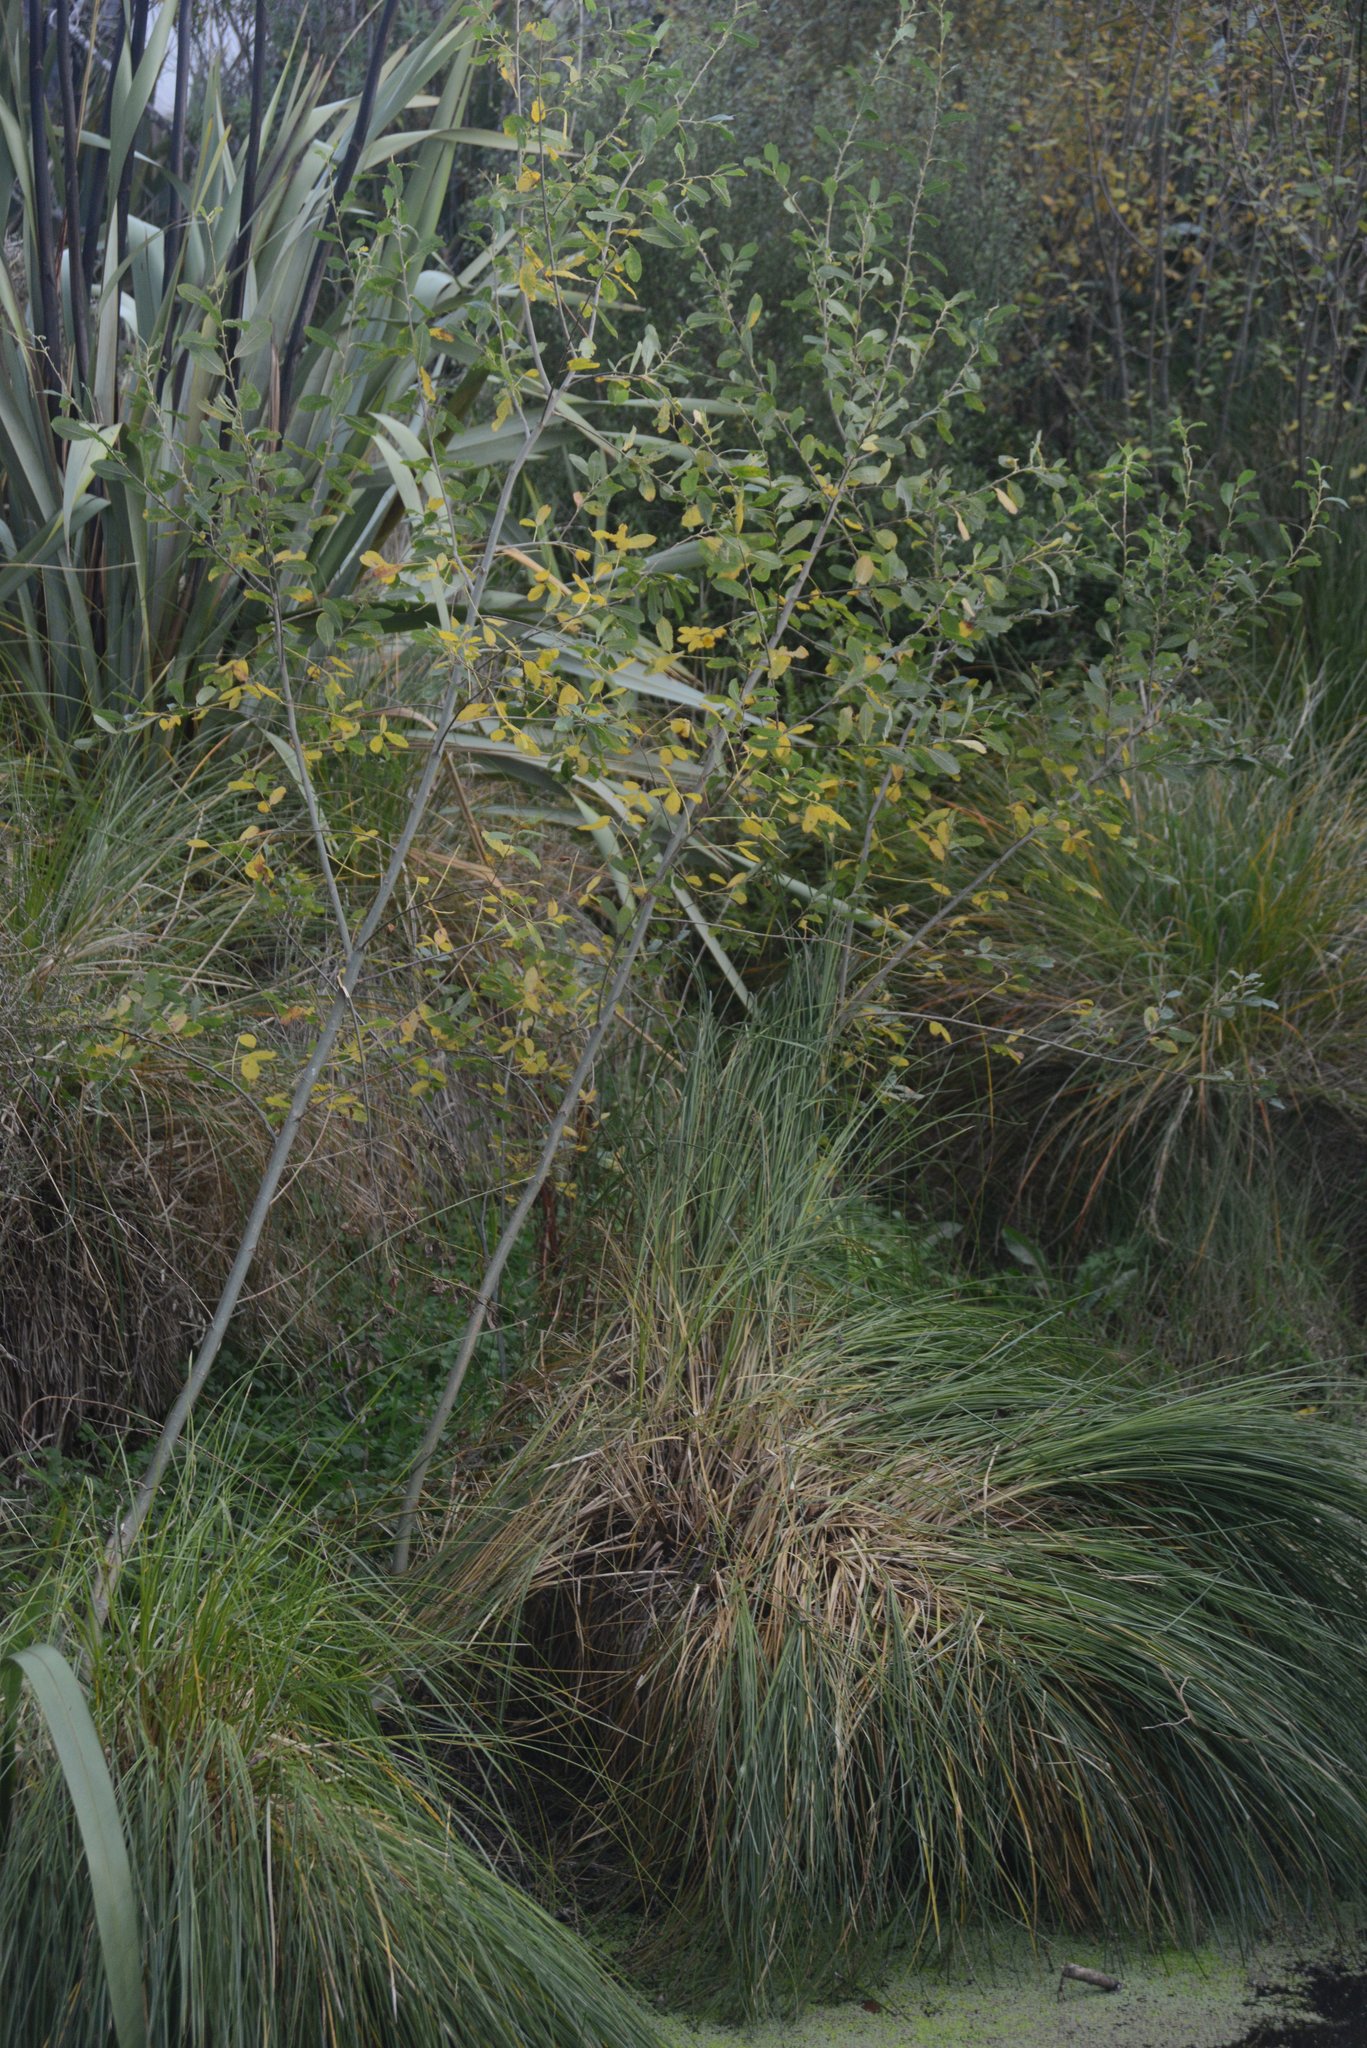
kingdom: Plantae
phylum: Tracheophyta
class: Magnoliopsida
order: Malpighiales
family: Salicaceae
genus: Salix
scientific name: Salix cinerea
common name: Common sallow
